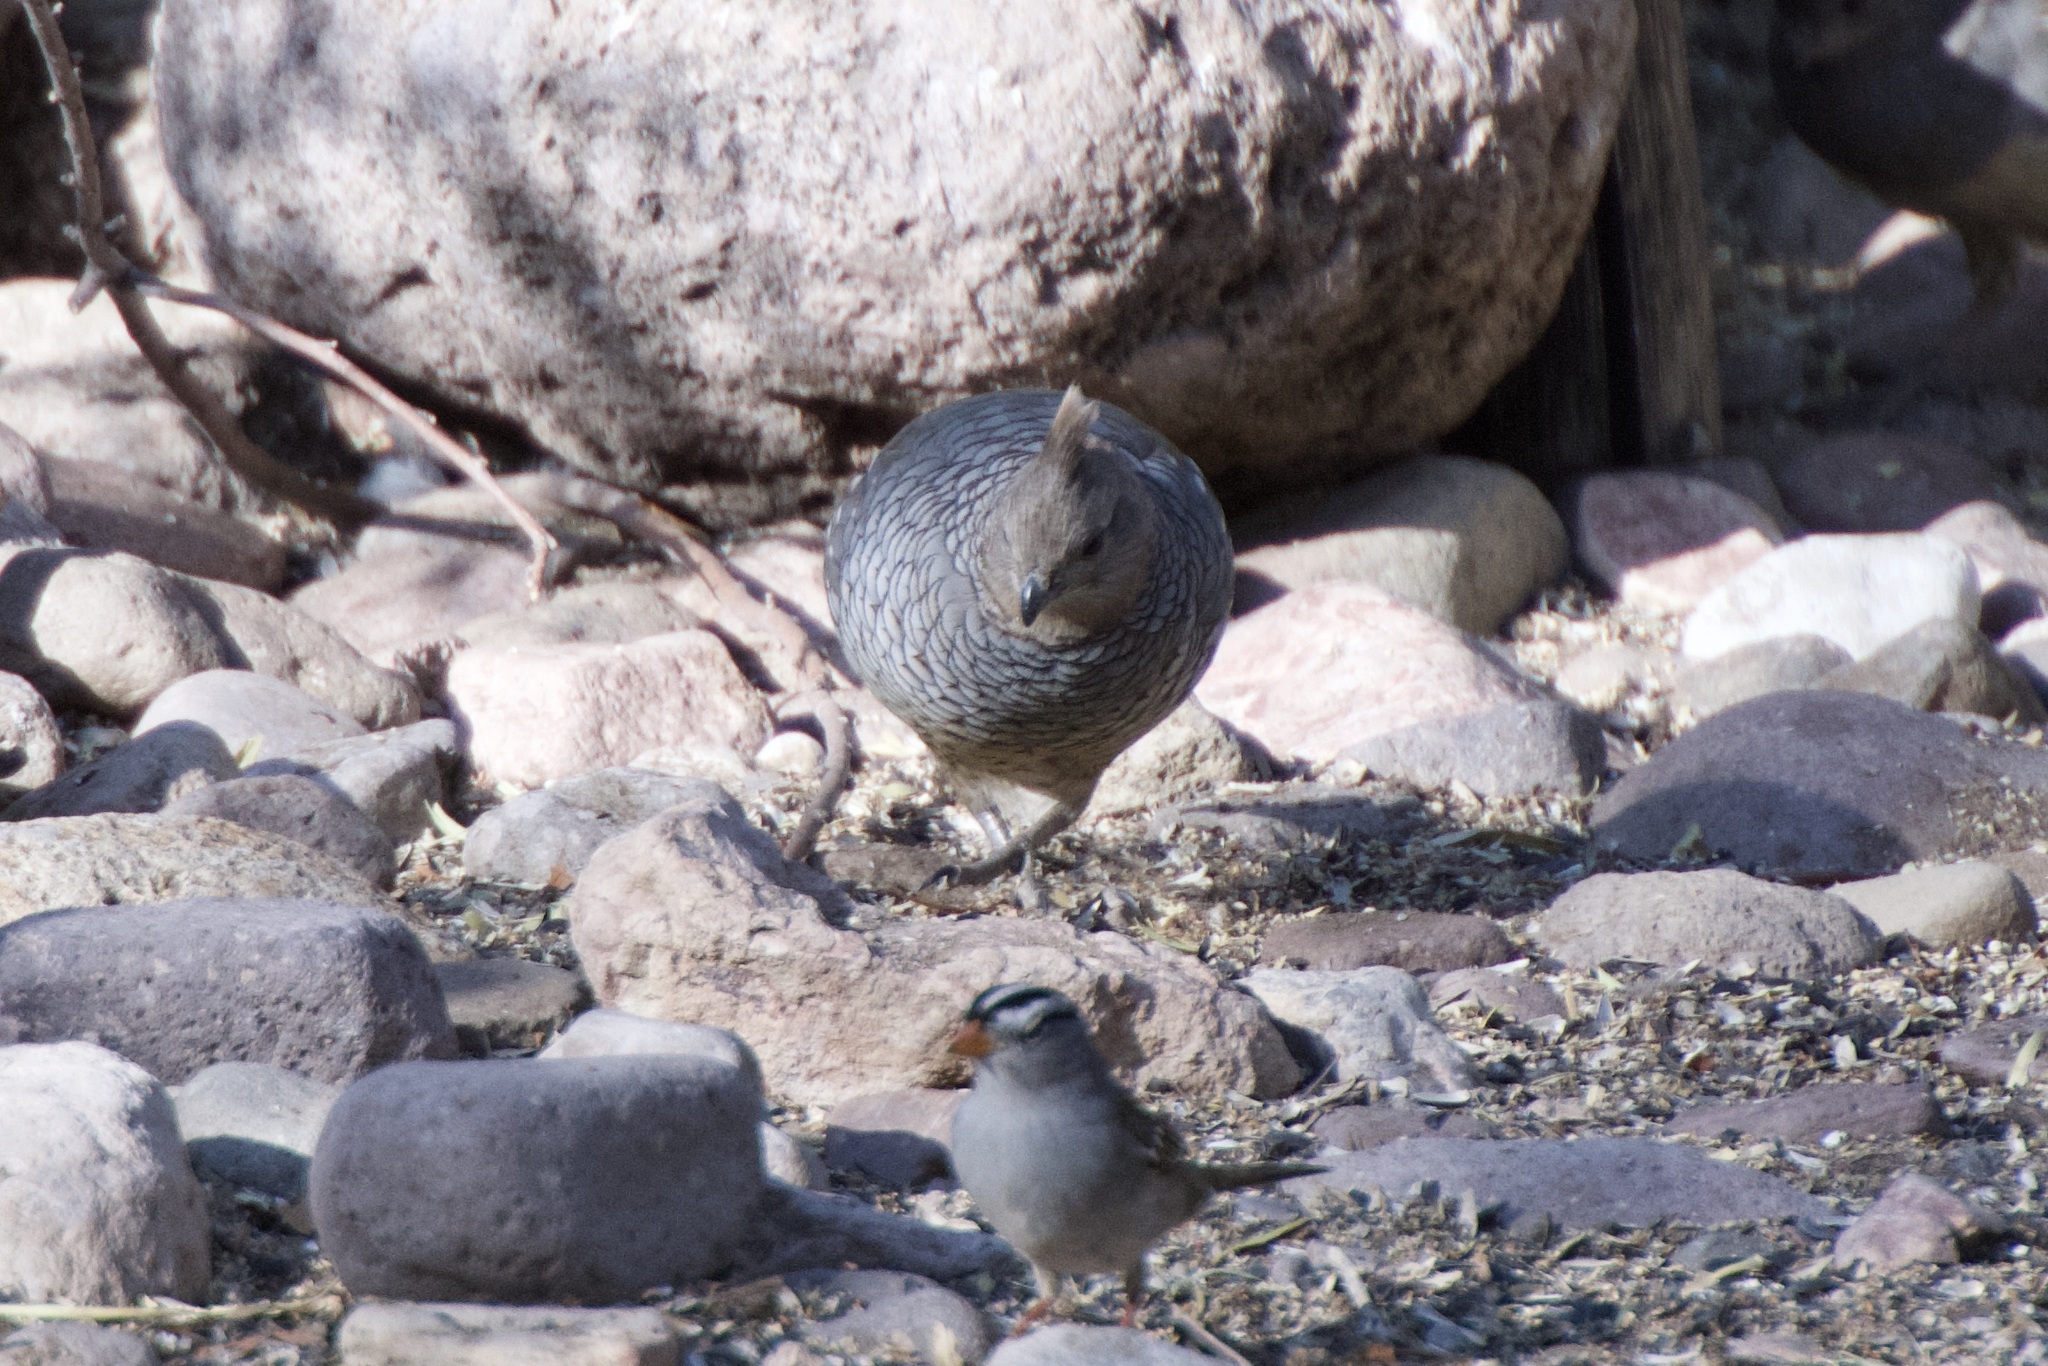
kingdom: Animalia
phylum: Chordata
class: Aves
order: Galliformes
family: Odontophoridae
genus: Callipepla
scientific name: Callipepla squamata
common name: Scaled quail
